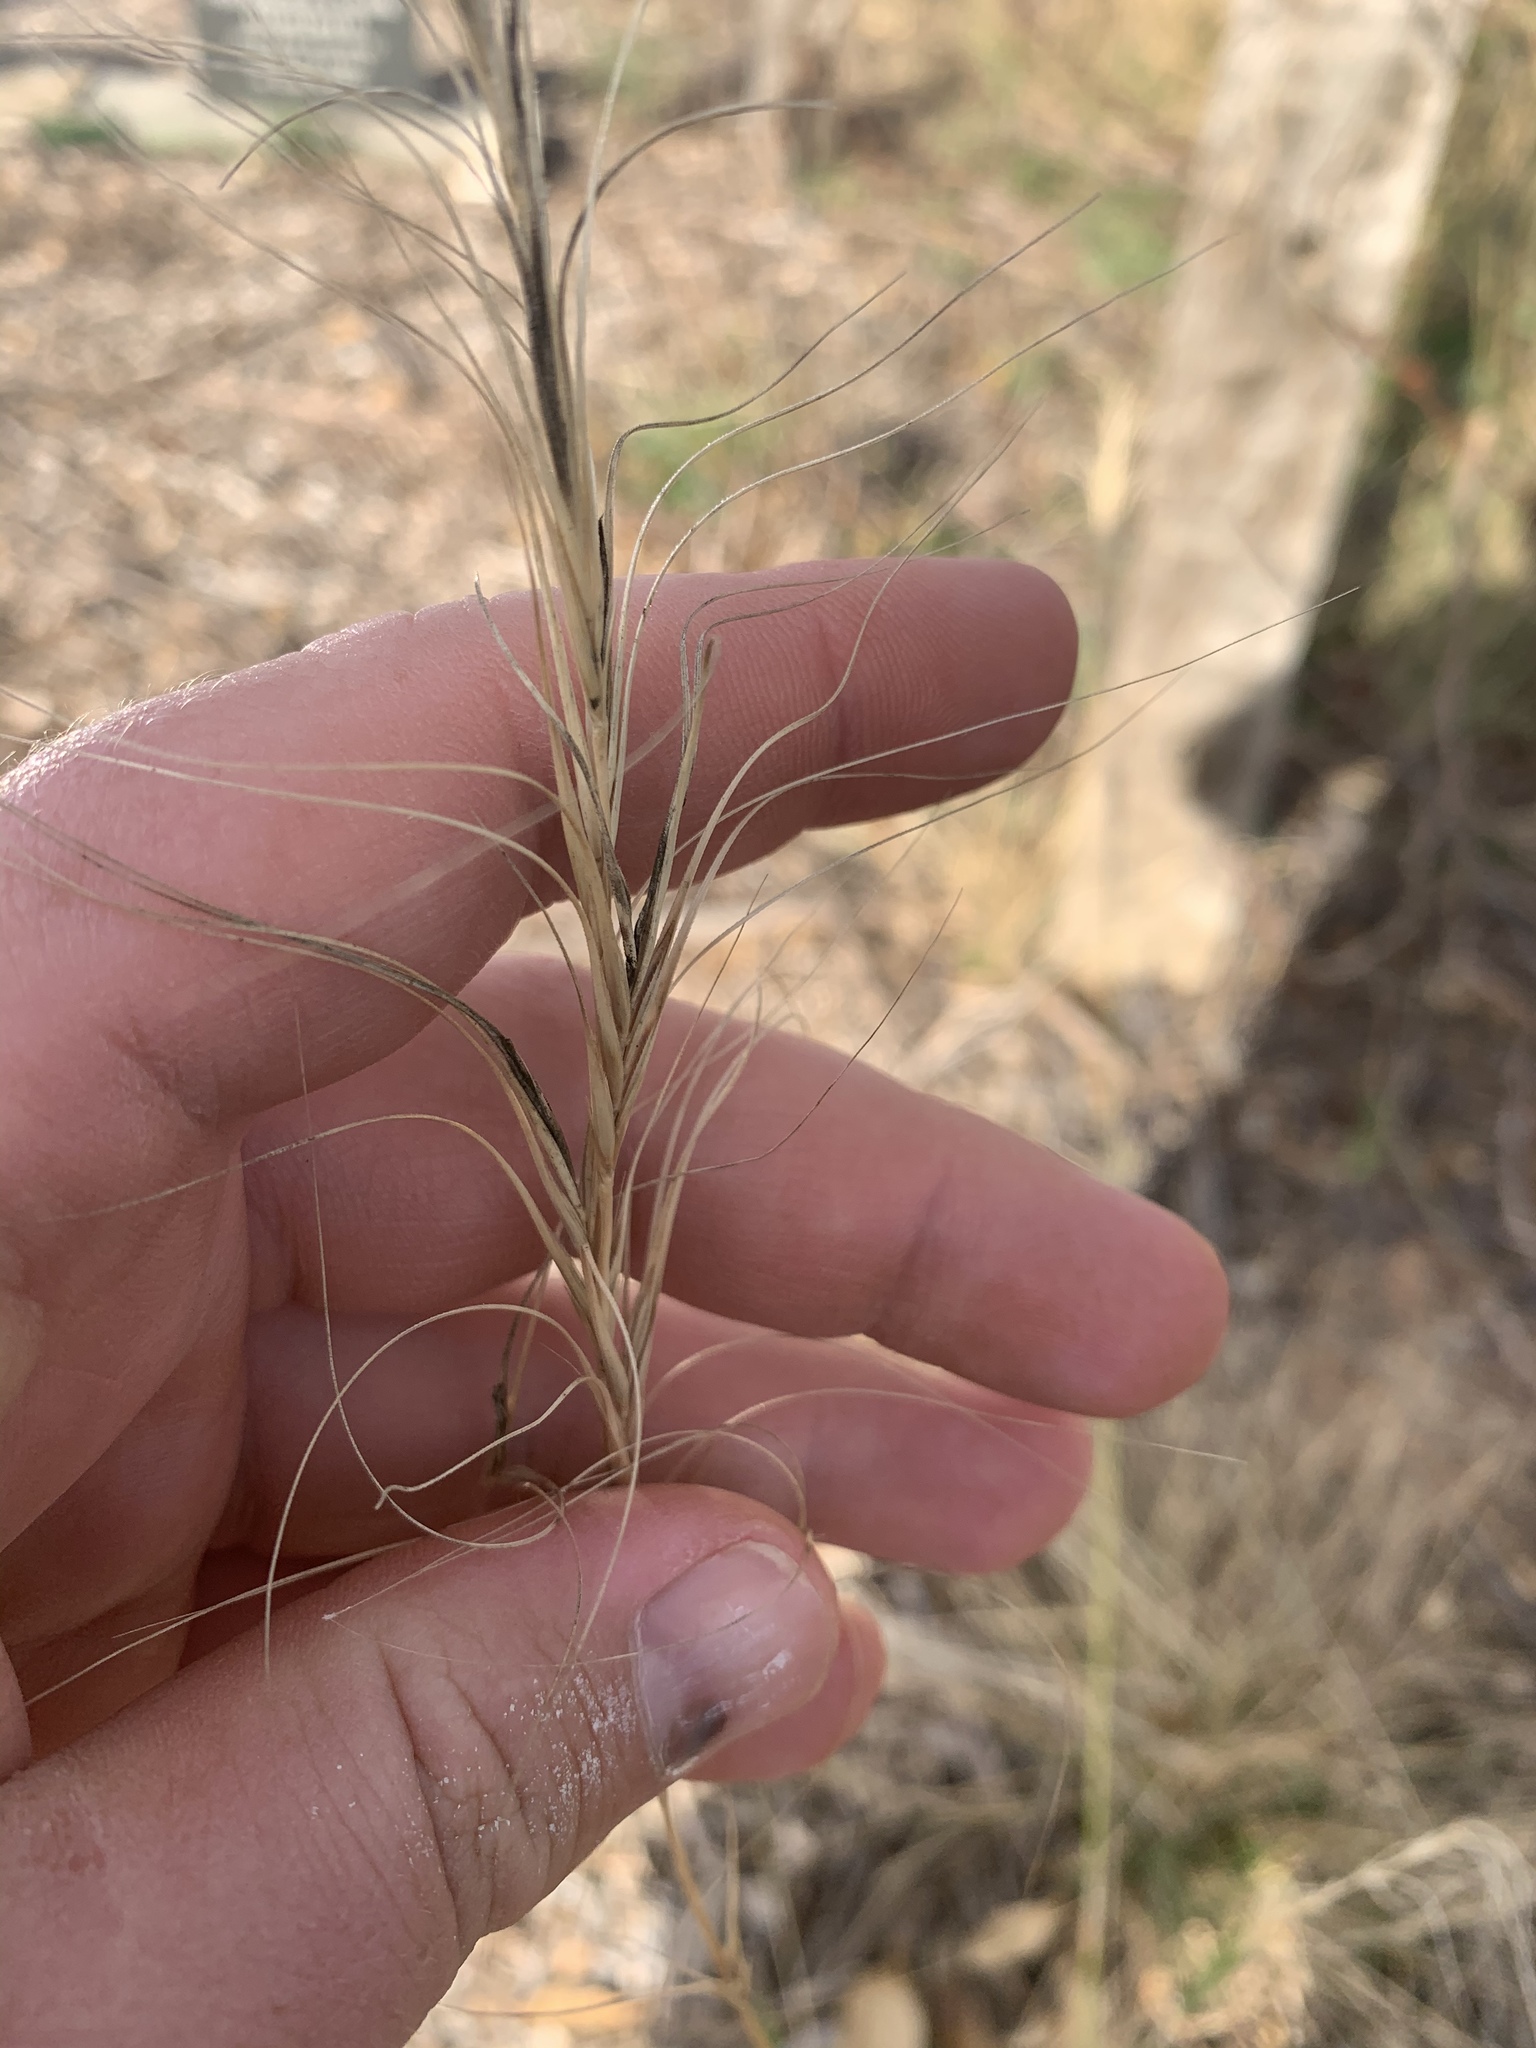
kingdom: Plantae
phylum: Tracheophyta
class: Liliopsida
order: Poales
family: Poaceae
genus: Anthosachne
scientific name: Anthosachne scabra
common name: Common wheatgrass
